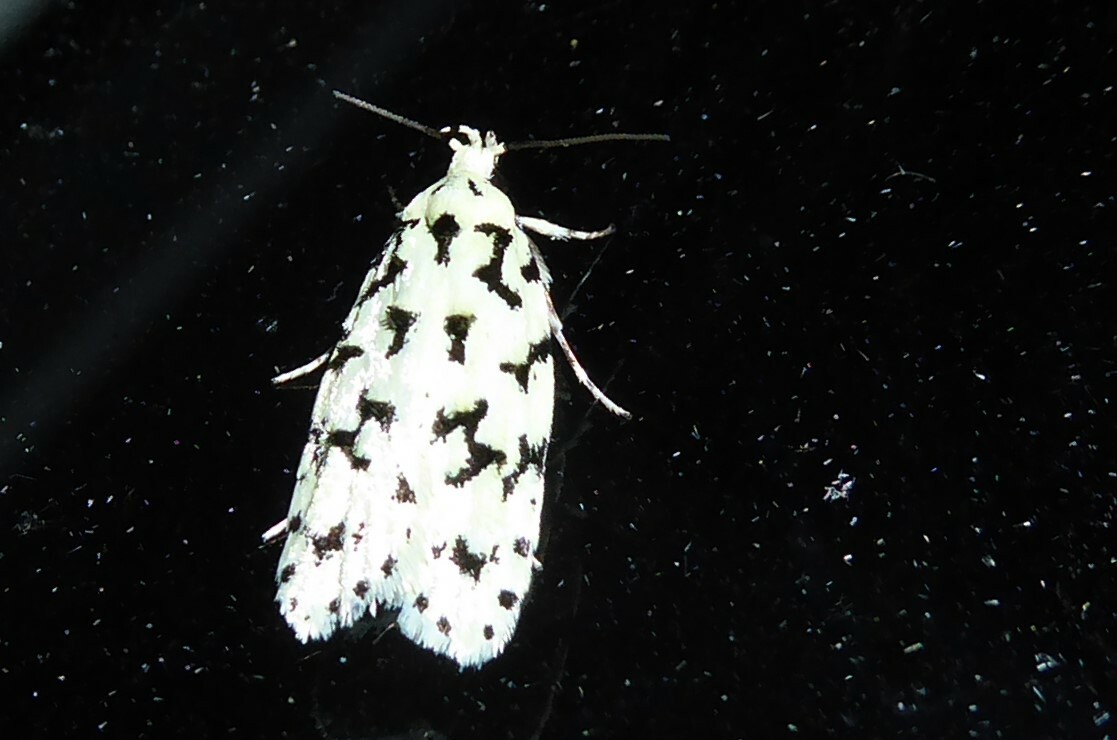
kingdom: Animalia
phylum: Arthropoda
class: Insecta
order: Lepidoptera
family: Oecophoridae
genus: Izatha
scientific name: Izatha huttoni
